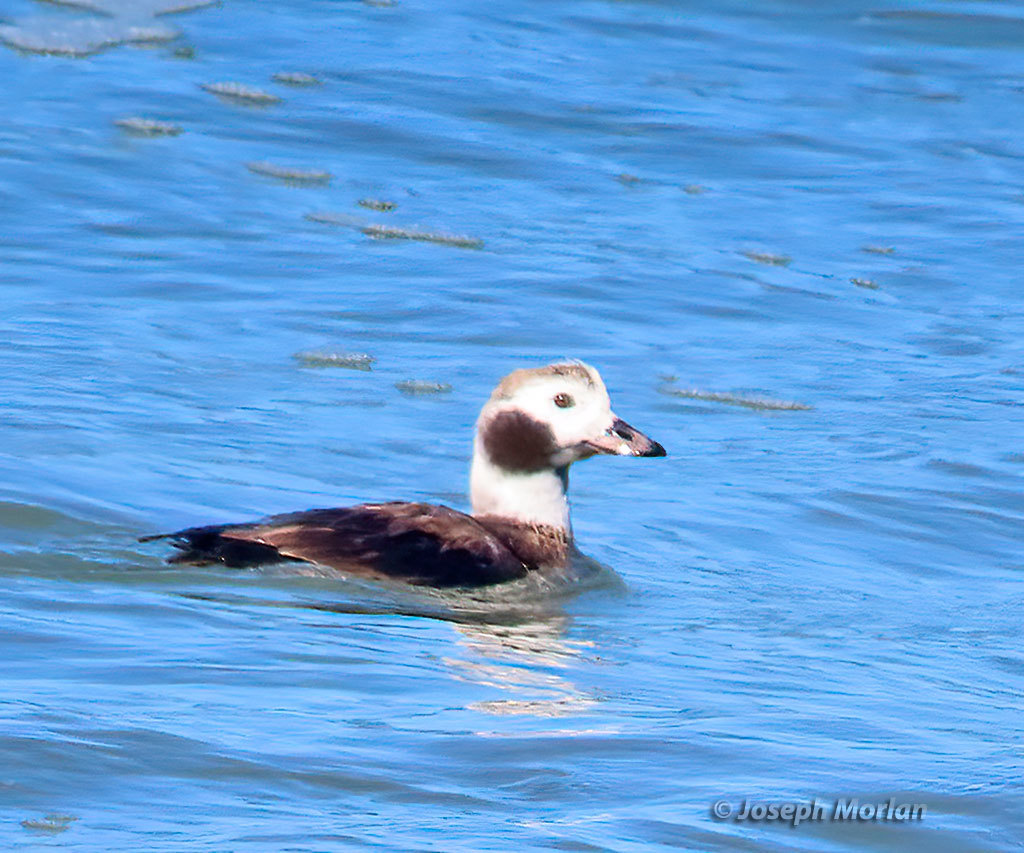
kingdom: Animalia
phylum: Chordata
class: Aves
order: Anseriformes
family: Anatidae
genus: Clangula
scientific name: Clangula hyemalis
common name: Long-tailed duck
